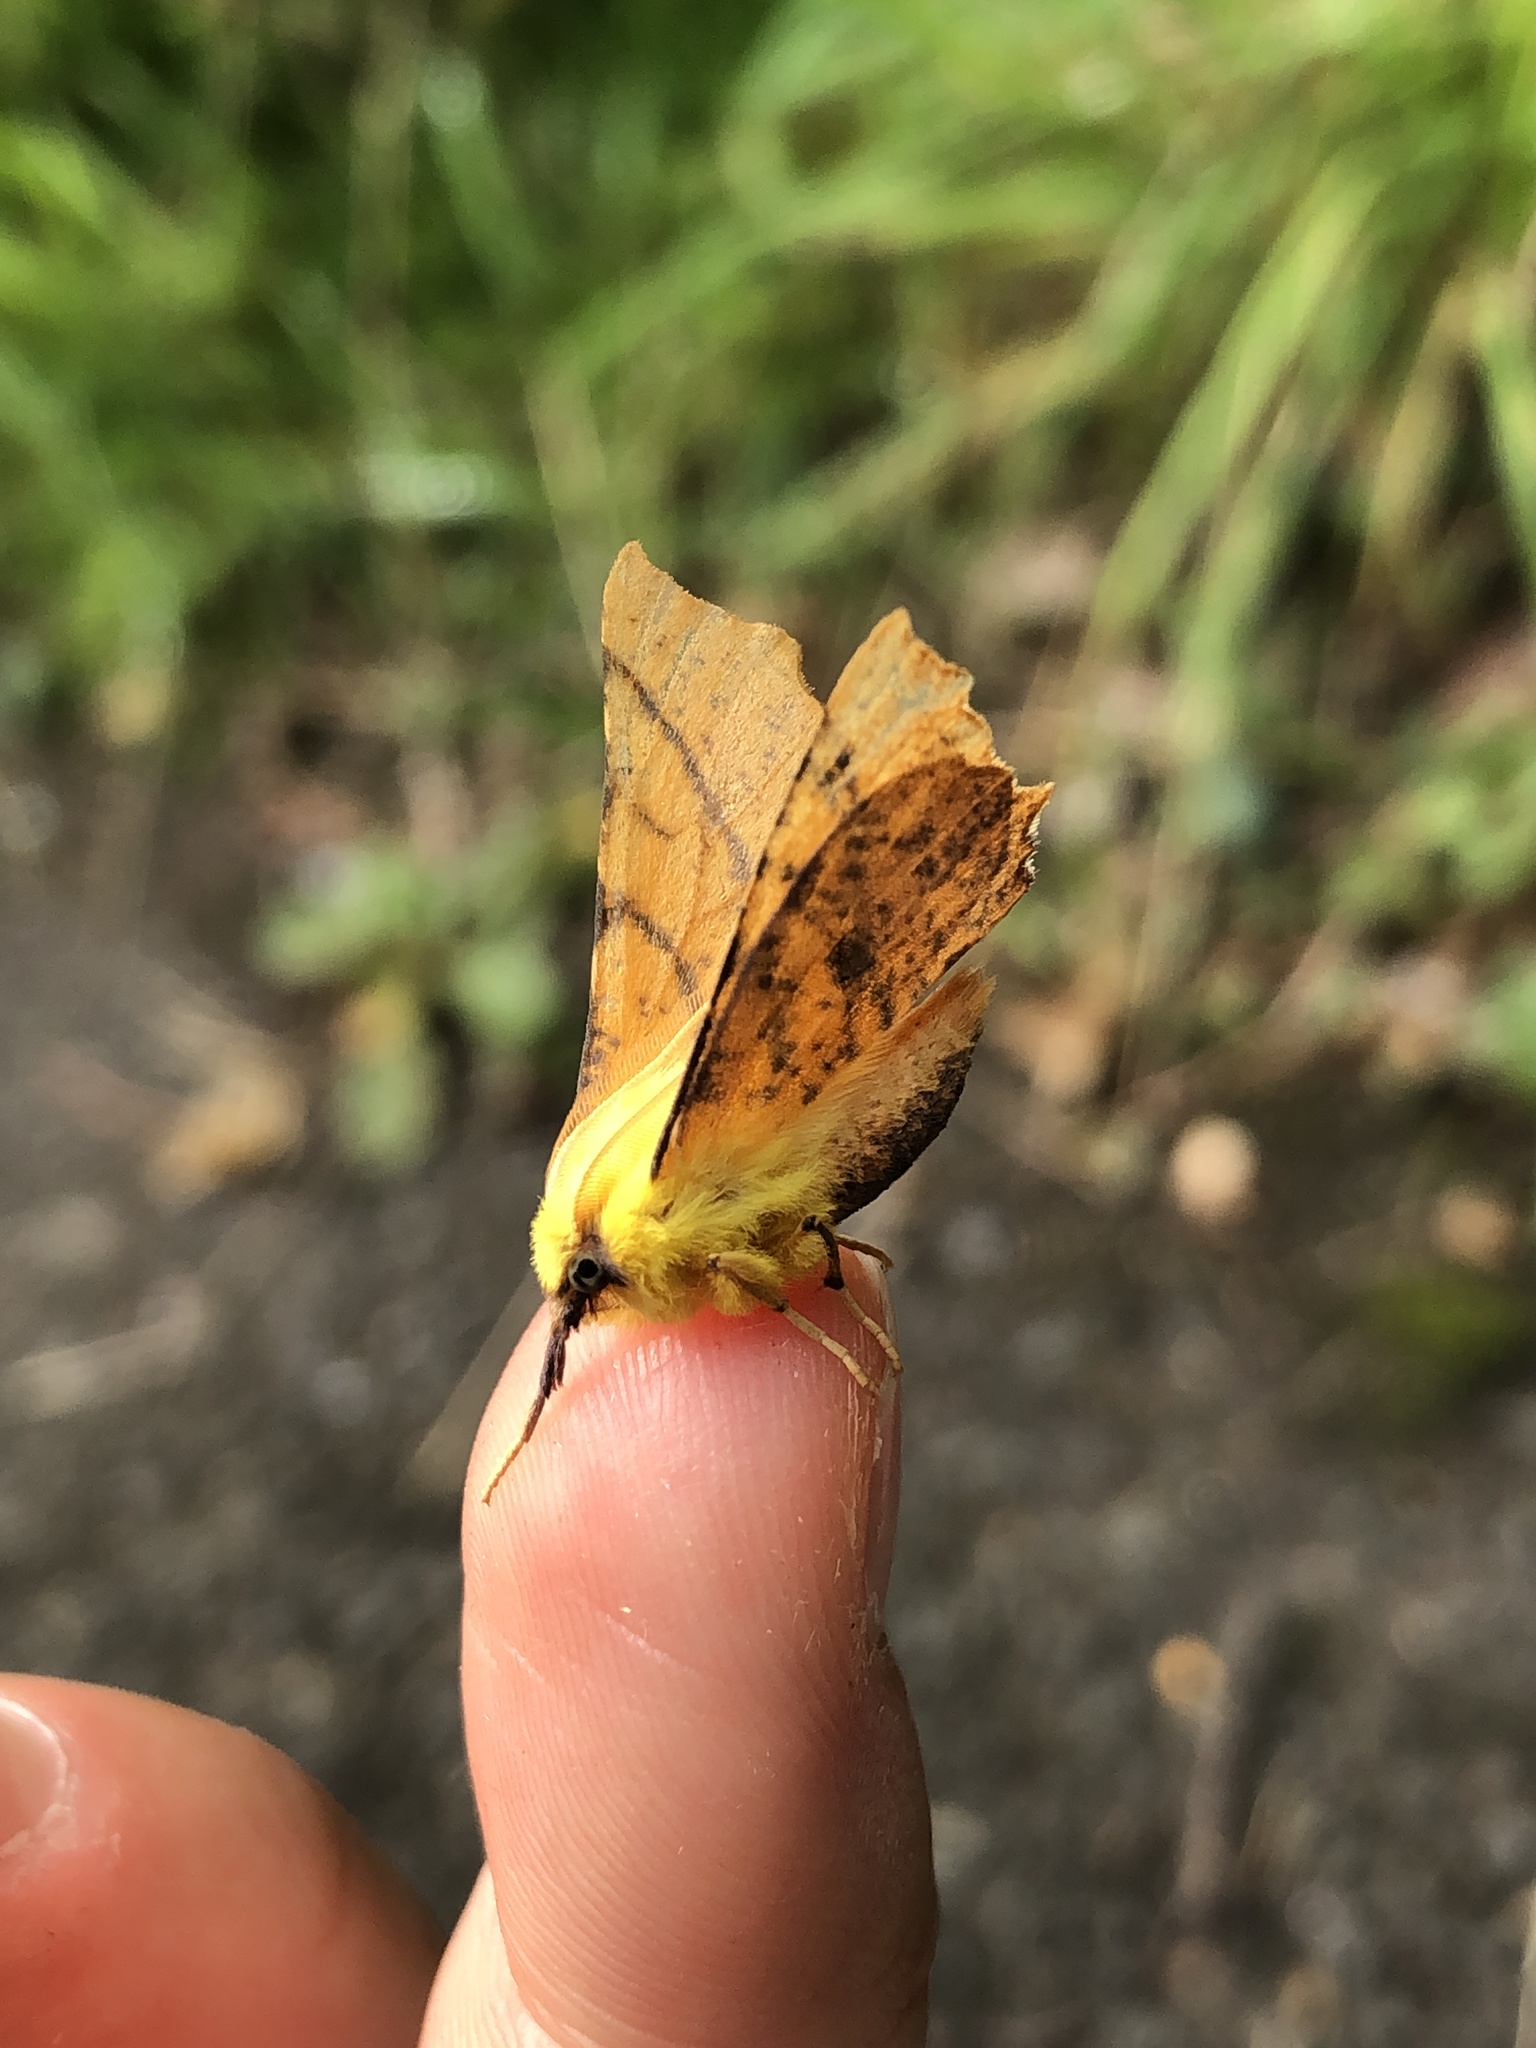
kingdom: Animalia
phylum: Arthropoda
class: Insecta
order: Lepidoptera
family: Geometridae
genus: Ennomos
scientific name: Ennomos alniaria
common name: Canary-shouldered thorn
